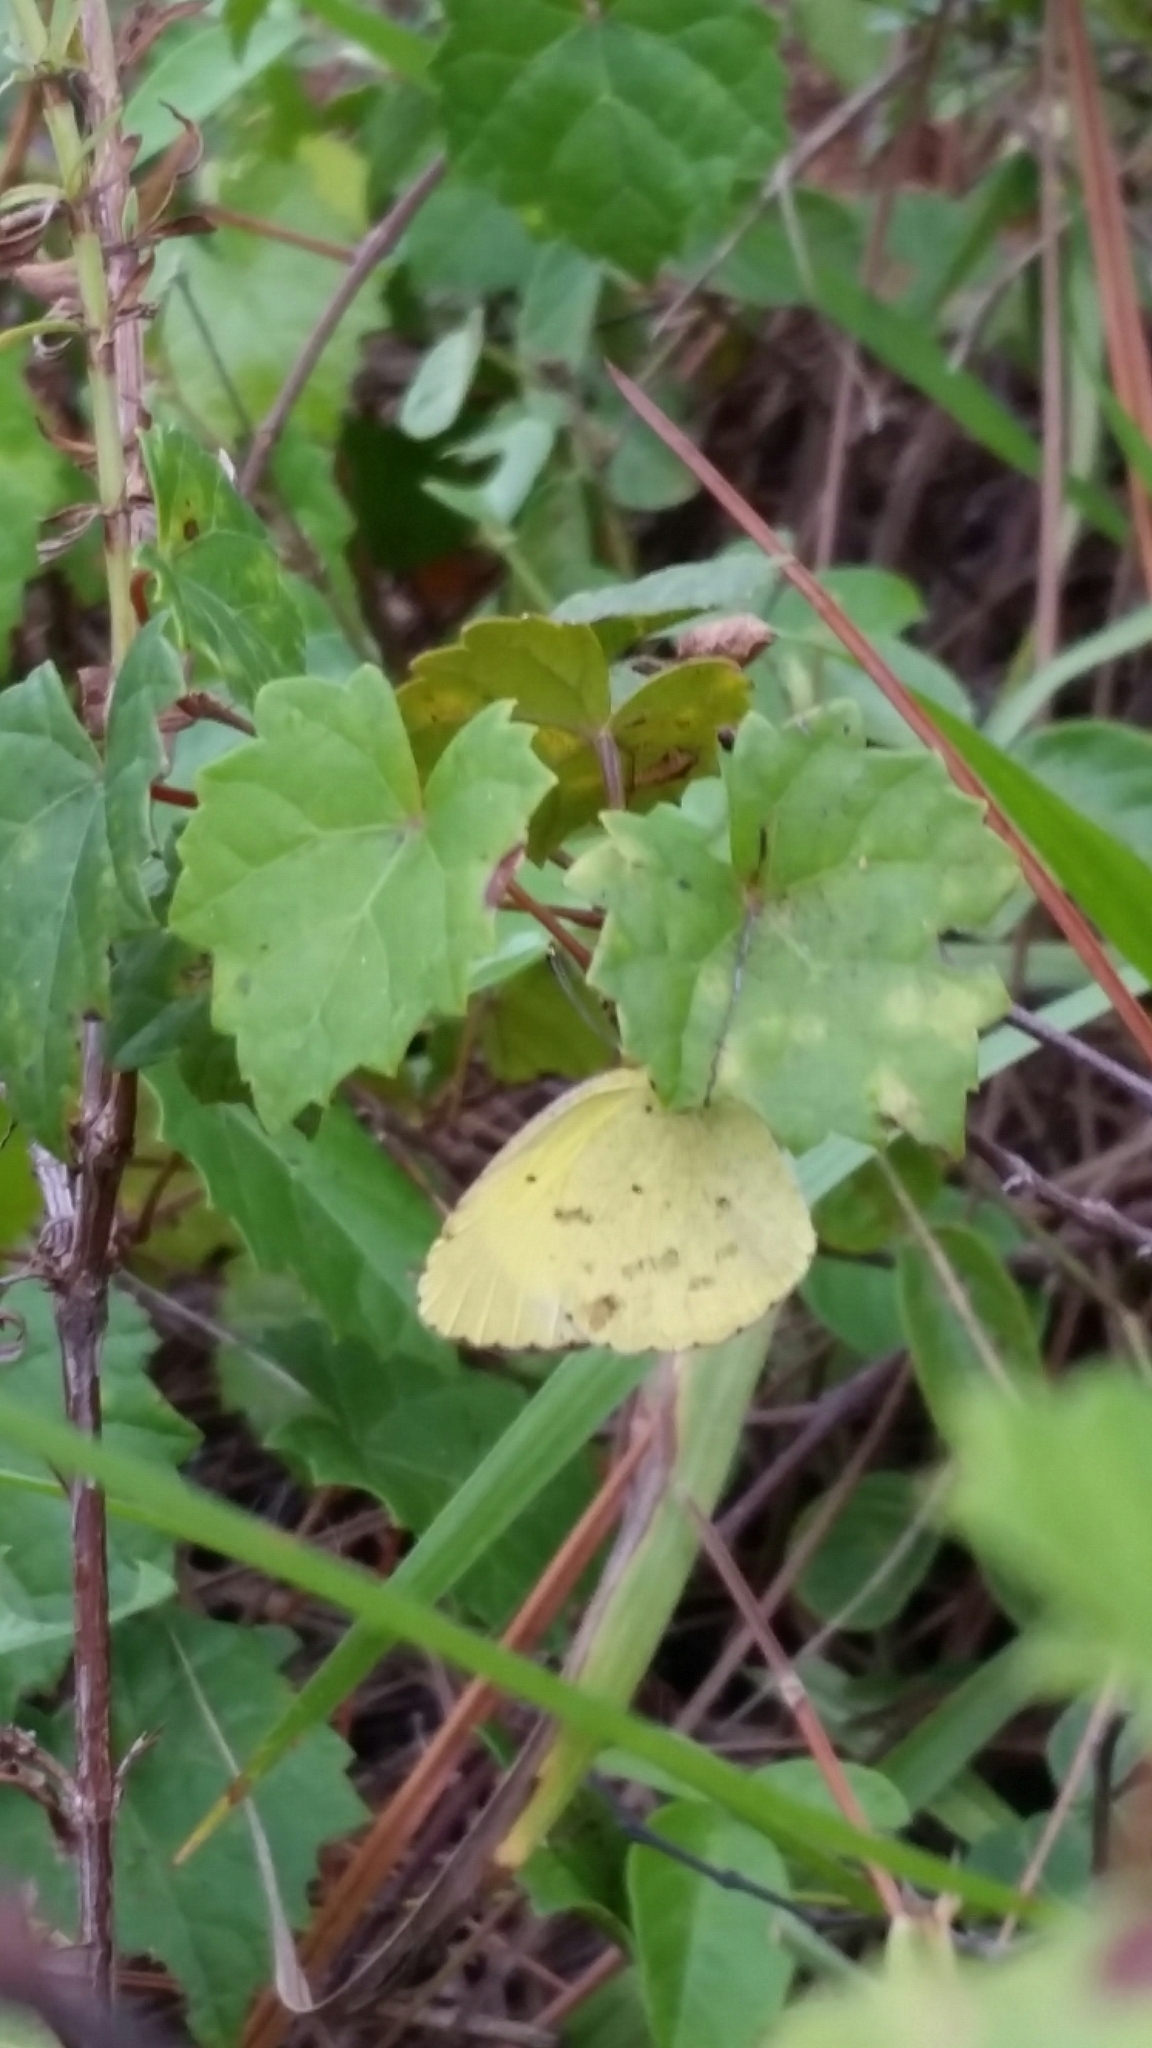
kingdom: Animalia
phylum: Arthropoda
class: Insecta
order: Lepidoptera
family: Pieridae
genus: Pyrisitia
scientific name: Pyrisitia lisa
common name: Little yellow
